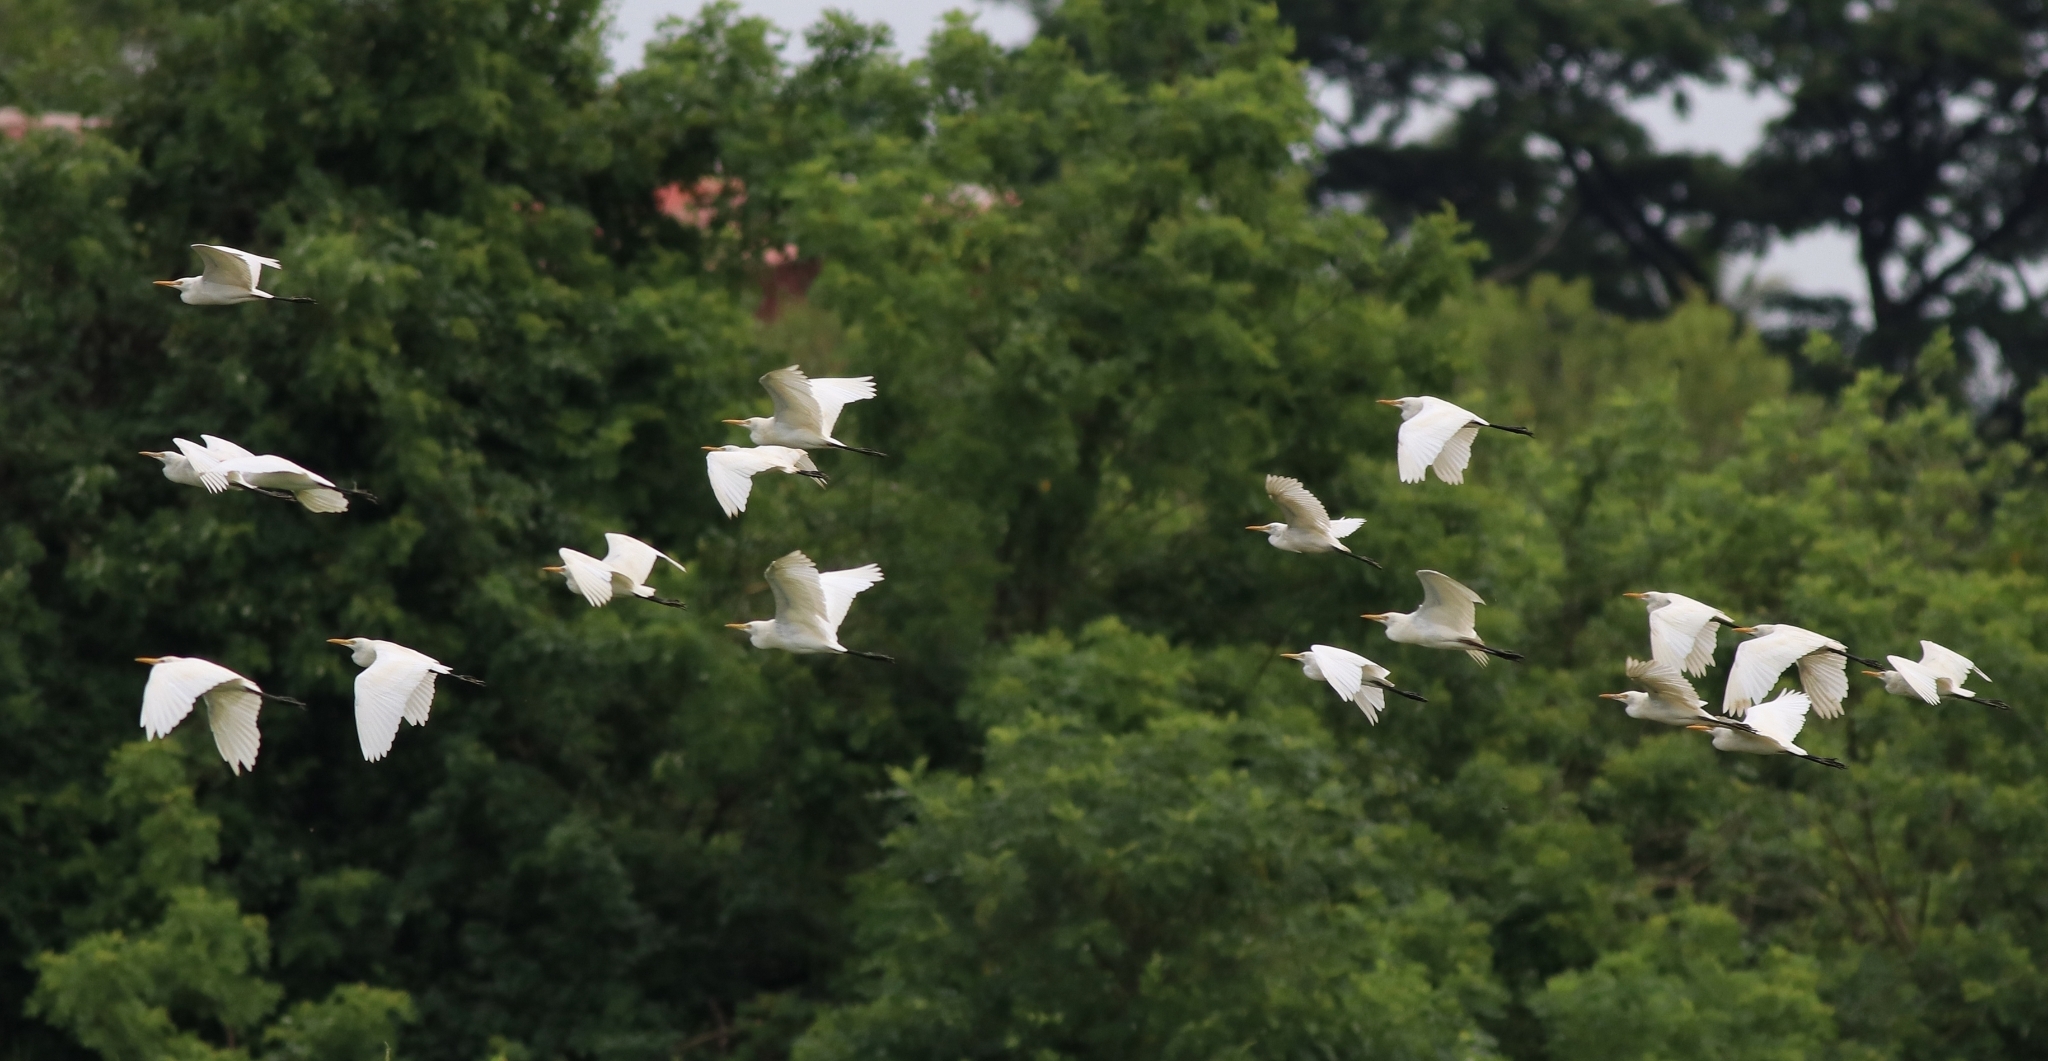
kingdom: Animalia
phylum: Chordata
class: Aves
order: Pelecaniformes
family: Ardeidae
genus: Bubulcus
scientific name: Bubulcus coromandus
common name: Eastern cattle egret
